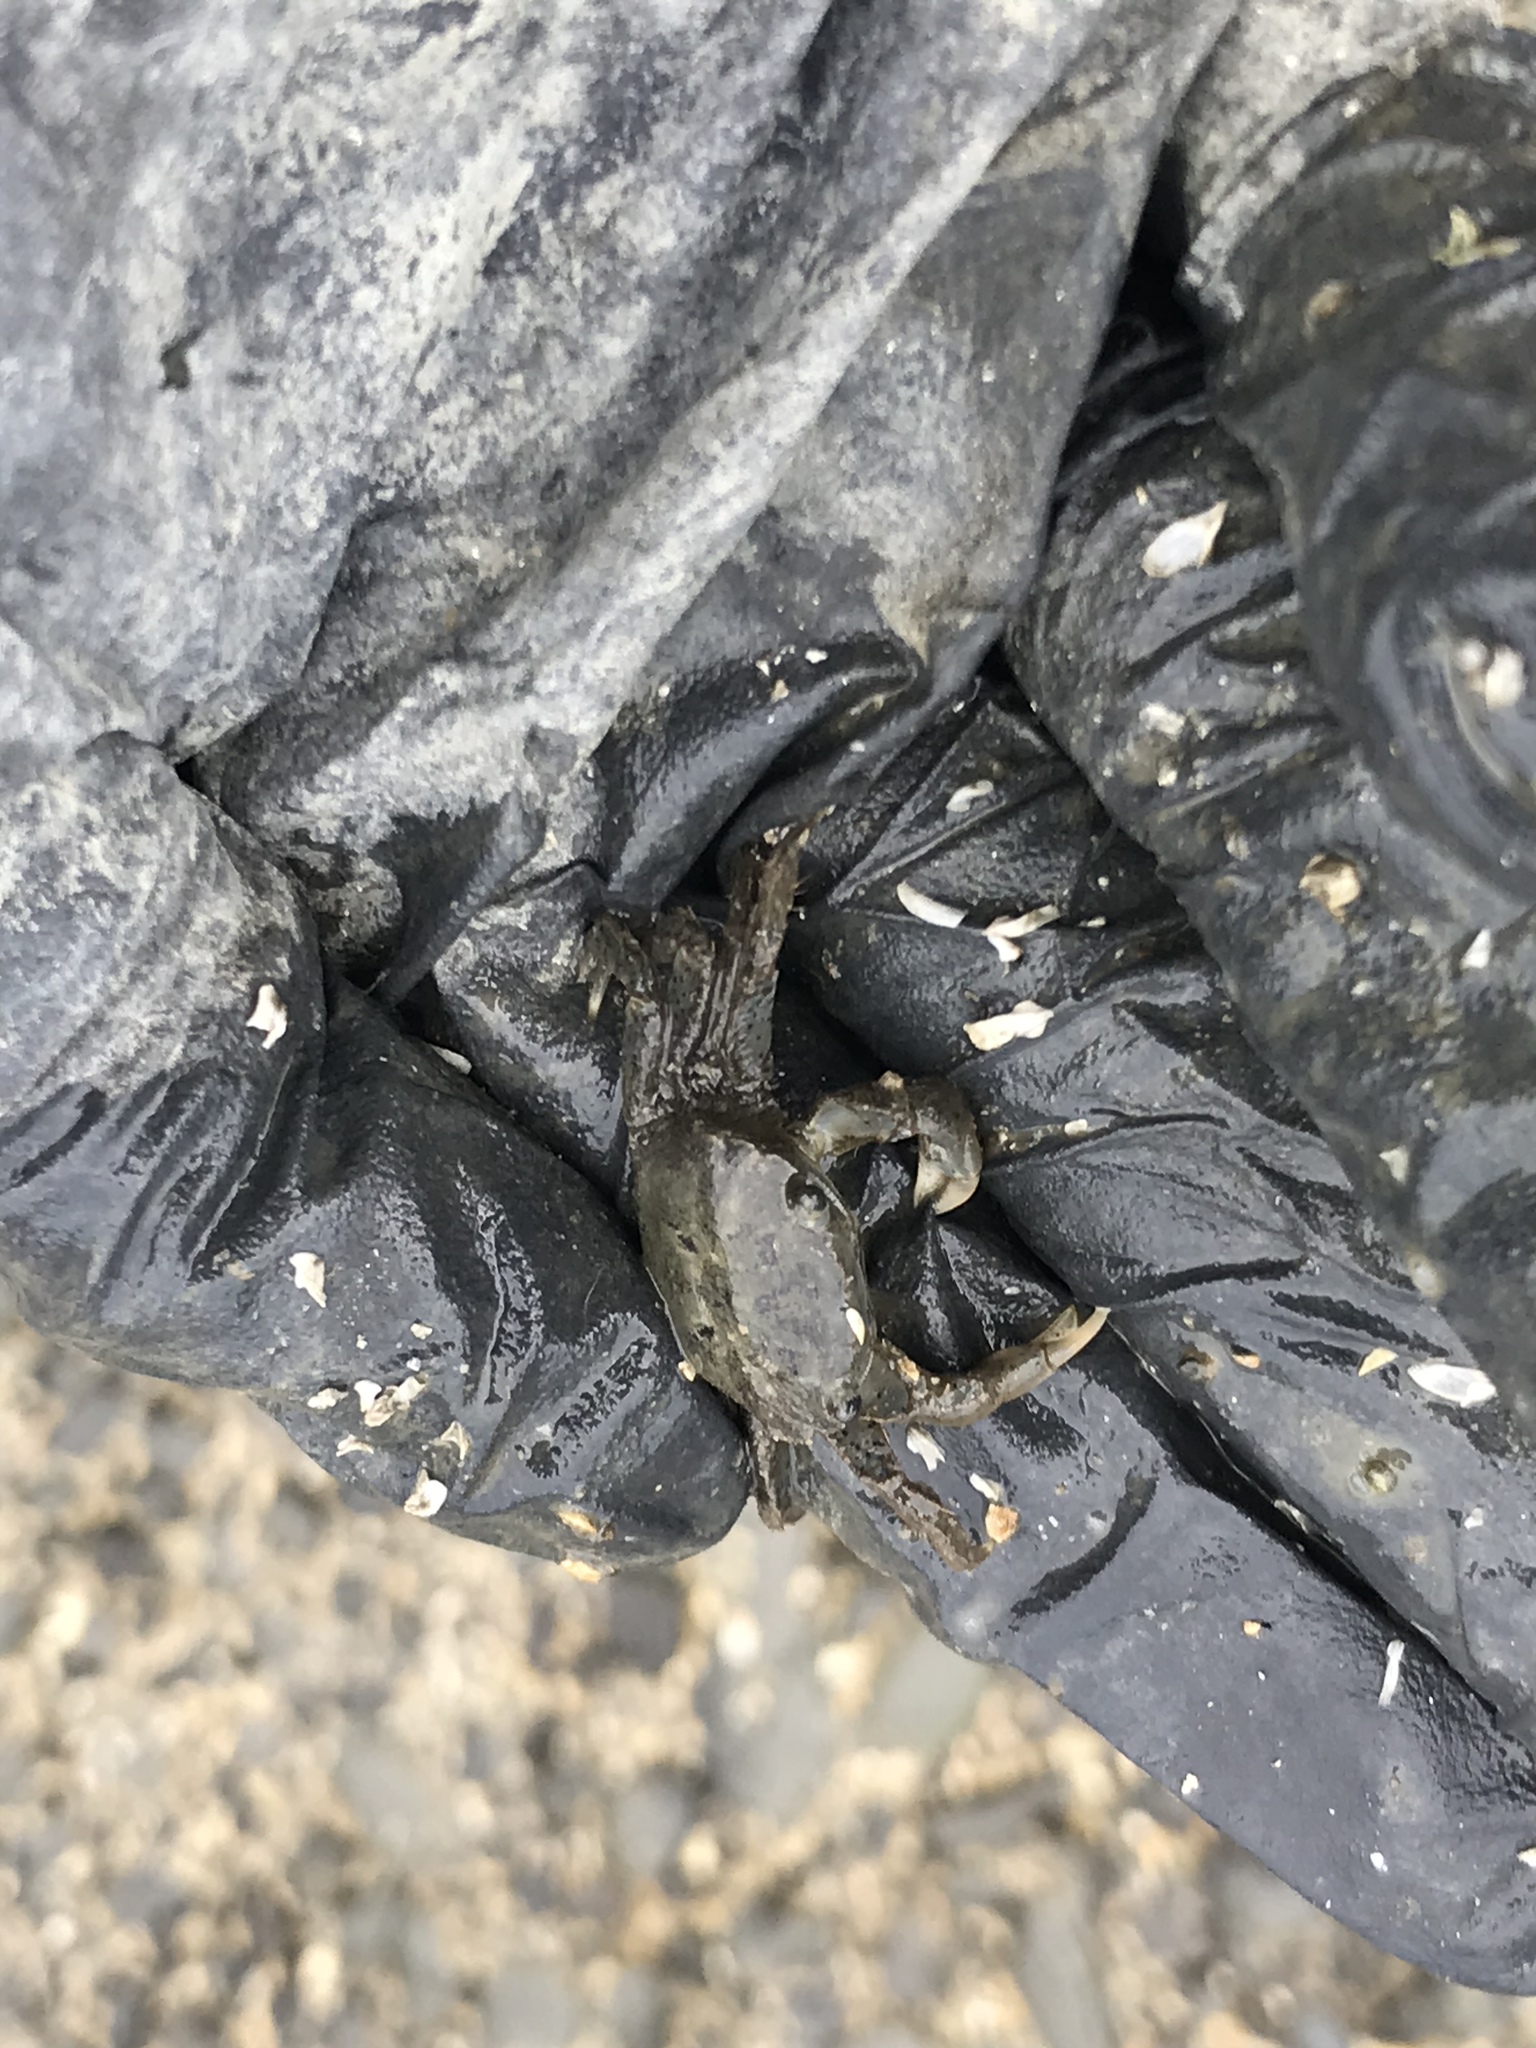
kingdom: Animalia
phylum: Arthropoda
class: Malacostraca
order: Decapoda
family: Varunidae
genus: Hemigrapsus
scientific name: Hemigrapsus oregonensis
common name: Yellow shore crab
